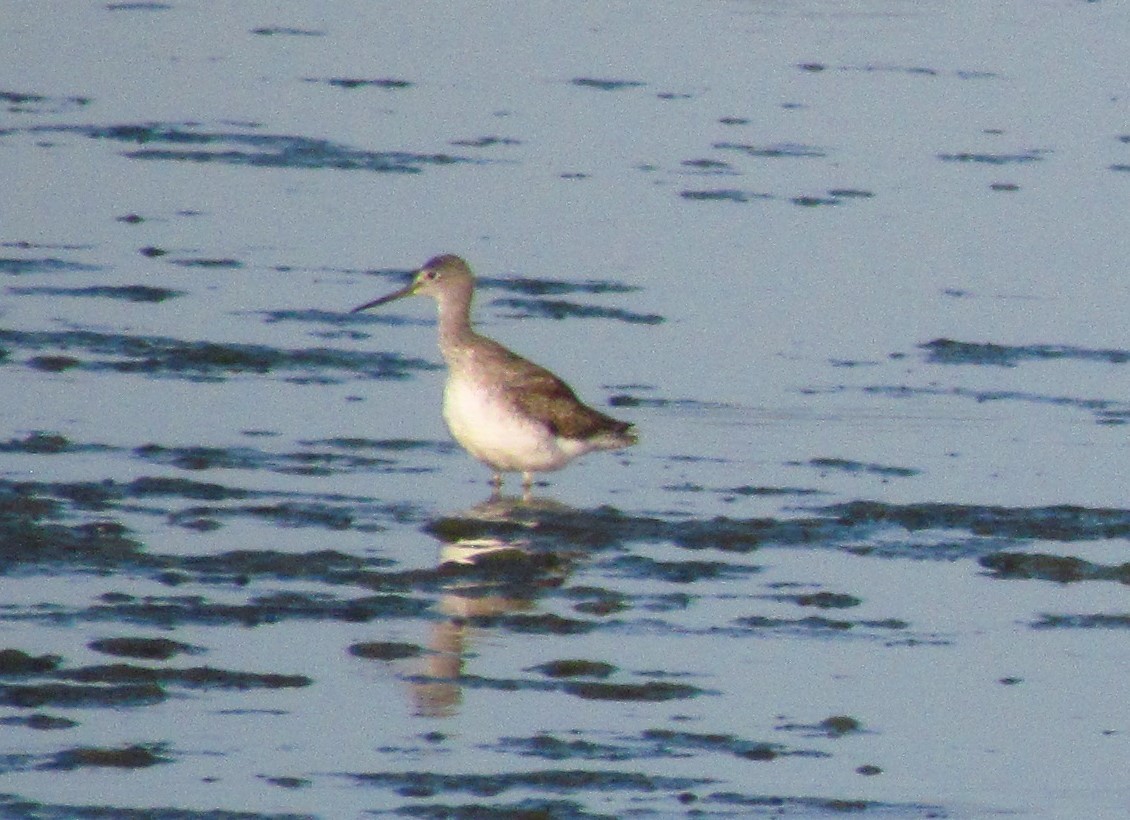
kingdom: Animalia
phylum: Chordata
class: Aves
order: Charadriiformes
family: Scolopacidae
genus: Tringa
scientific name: Tringa melanoleuca
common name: Greater yellowlegs
